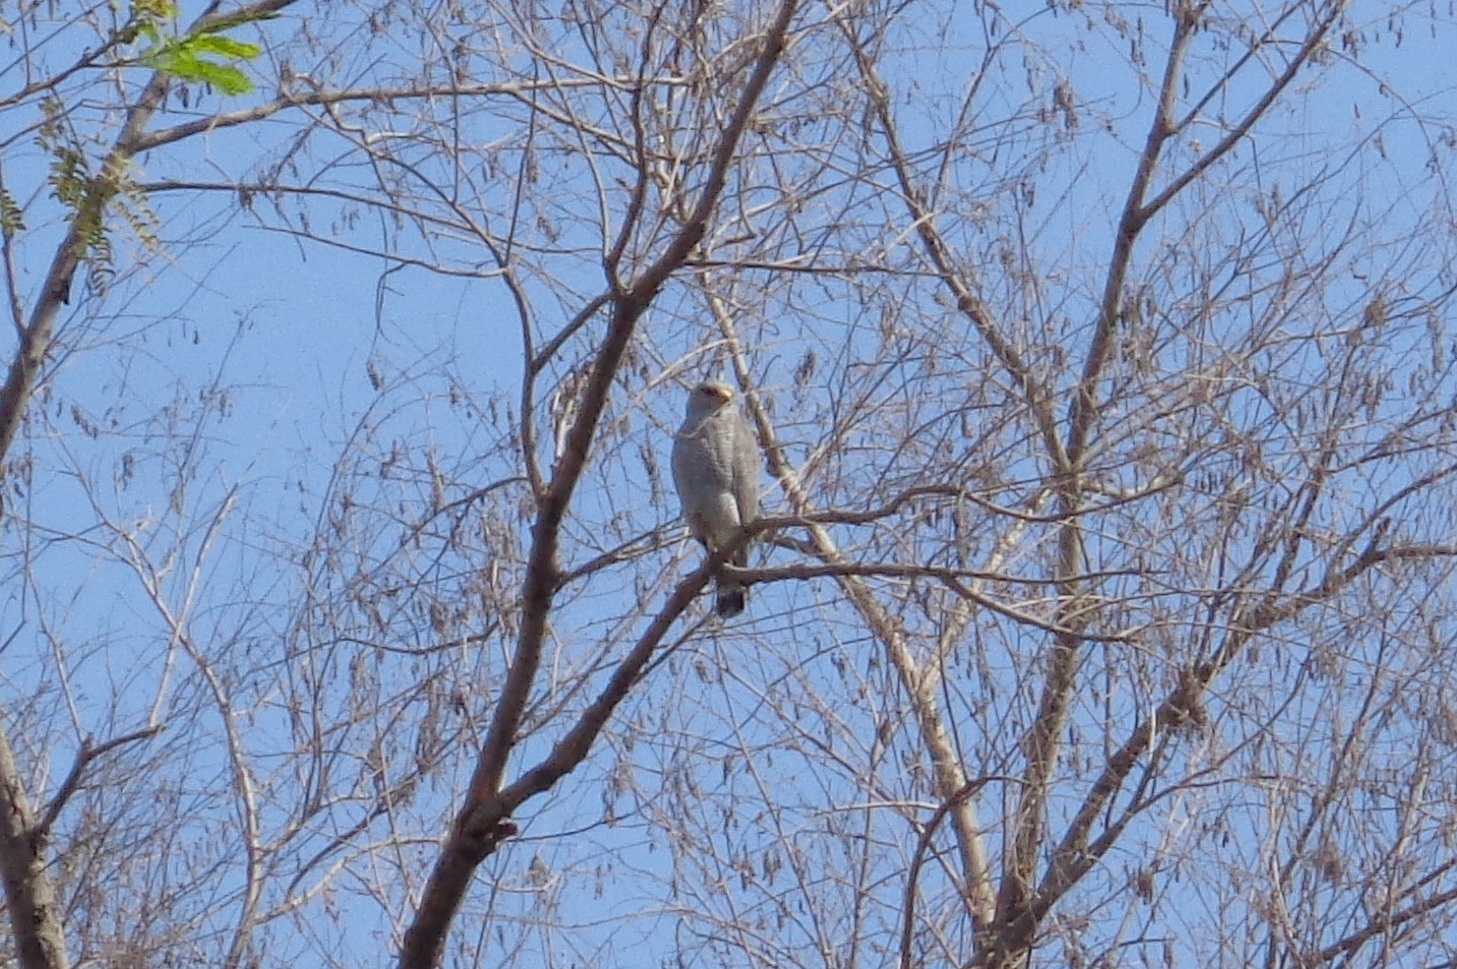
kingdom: Animalia
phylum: Chordata
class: Aves
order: Accipitriformes
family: Accipitridae
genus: Buteo
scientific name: Buteo nitidus
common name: Grey-lined hawk
